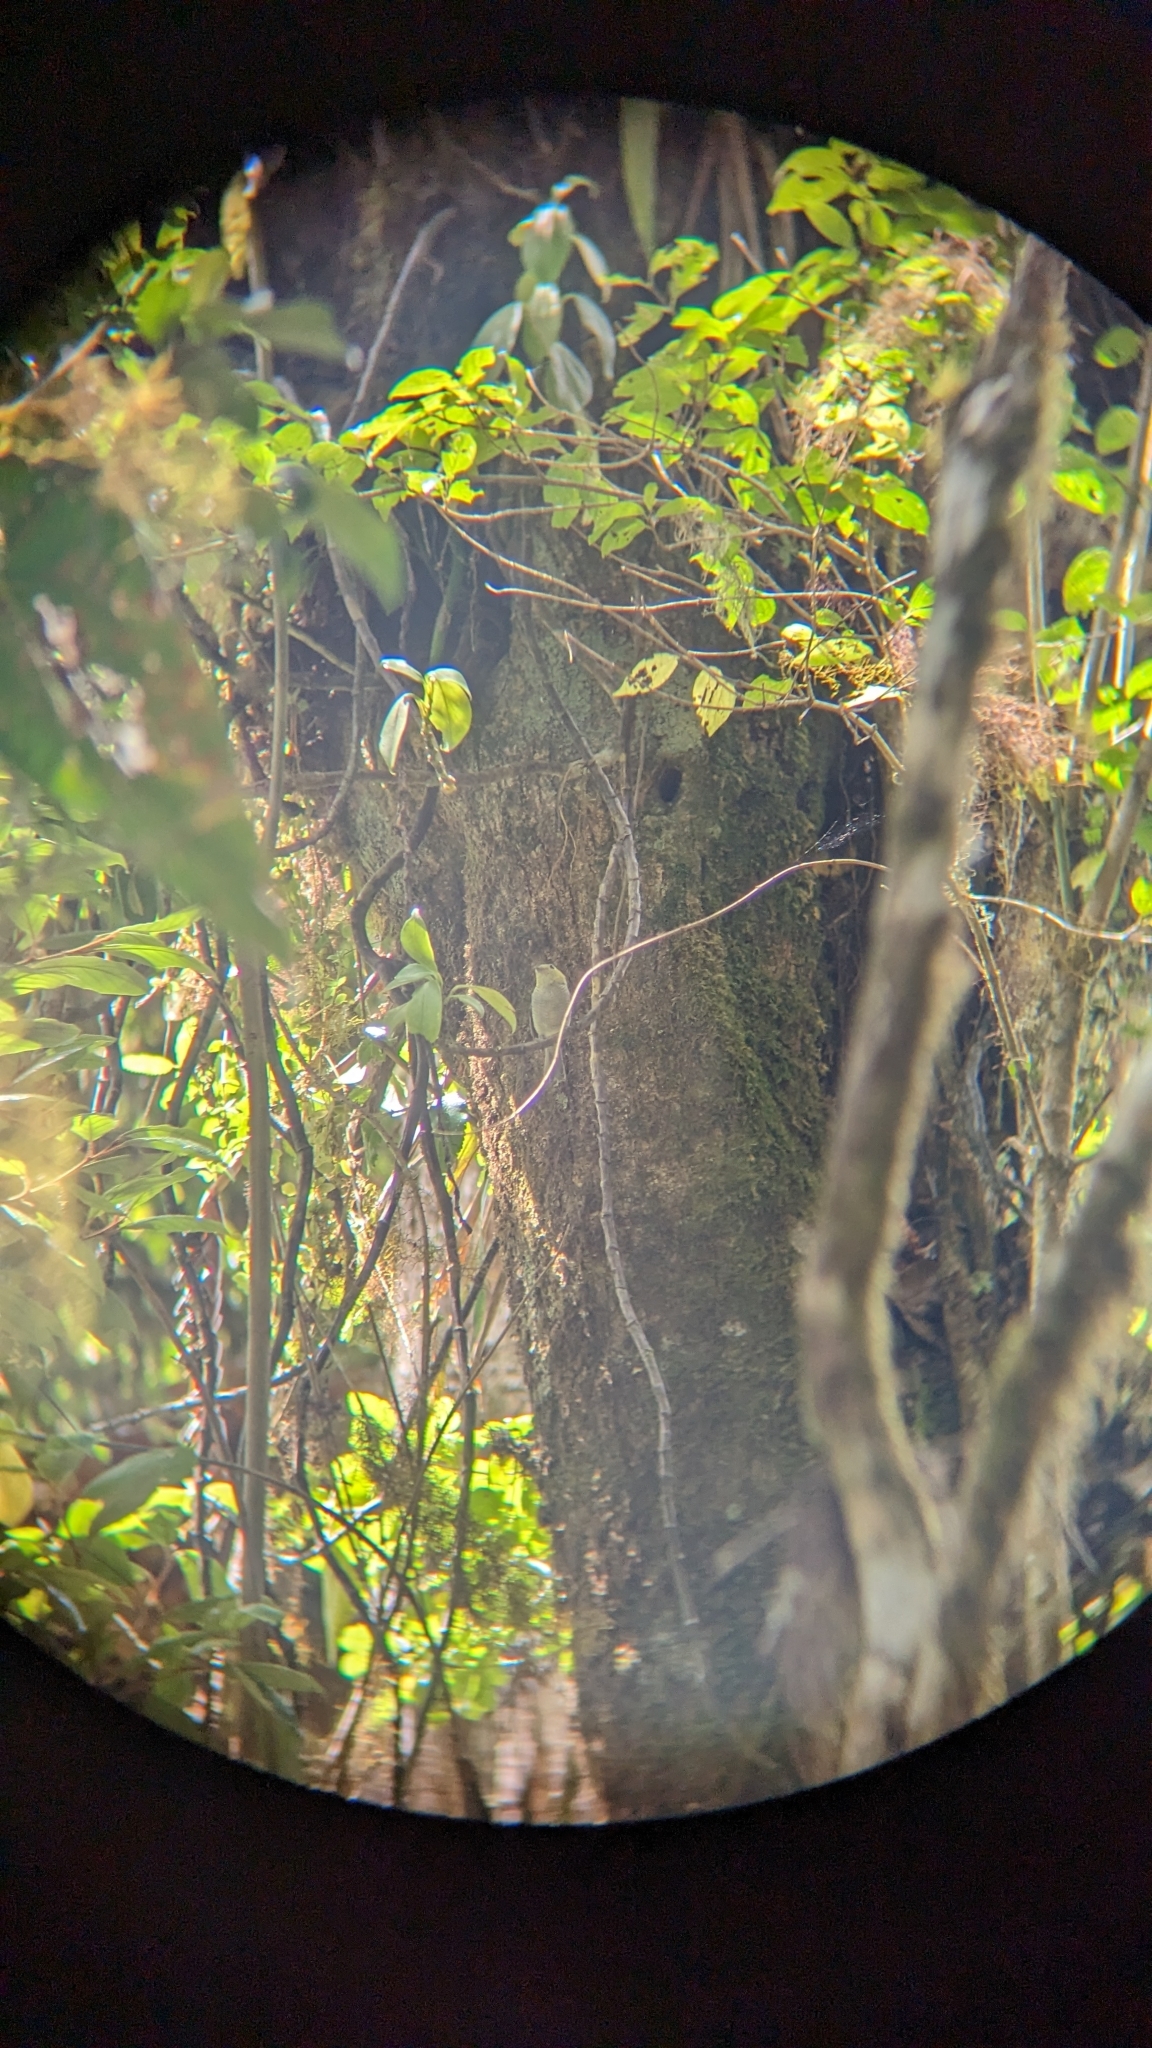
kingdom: Animalia
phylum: Chordata
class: Aves
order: Passeriformes
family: Cotingidae
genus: Pachyramphus
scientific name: Pachyramphus versicolor
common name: Barred becard
